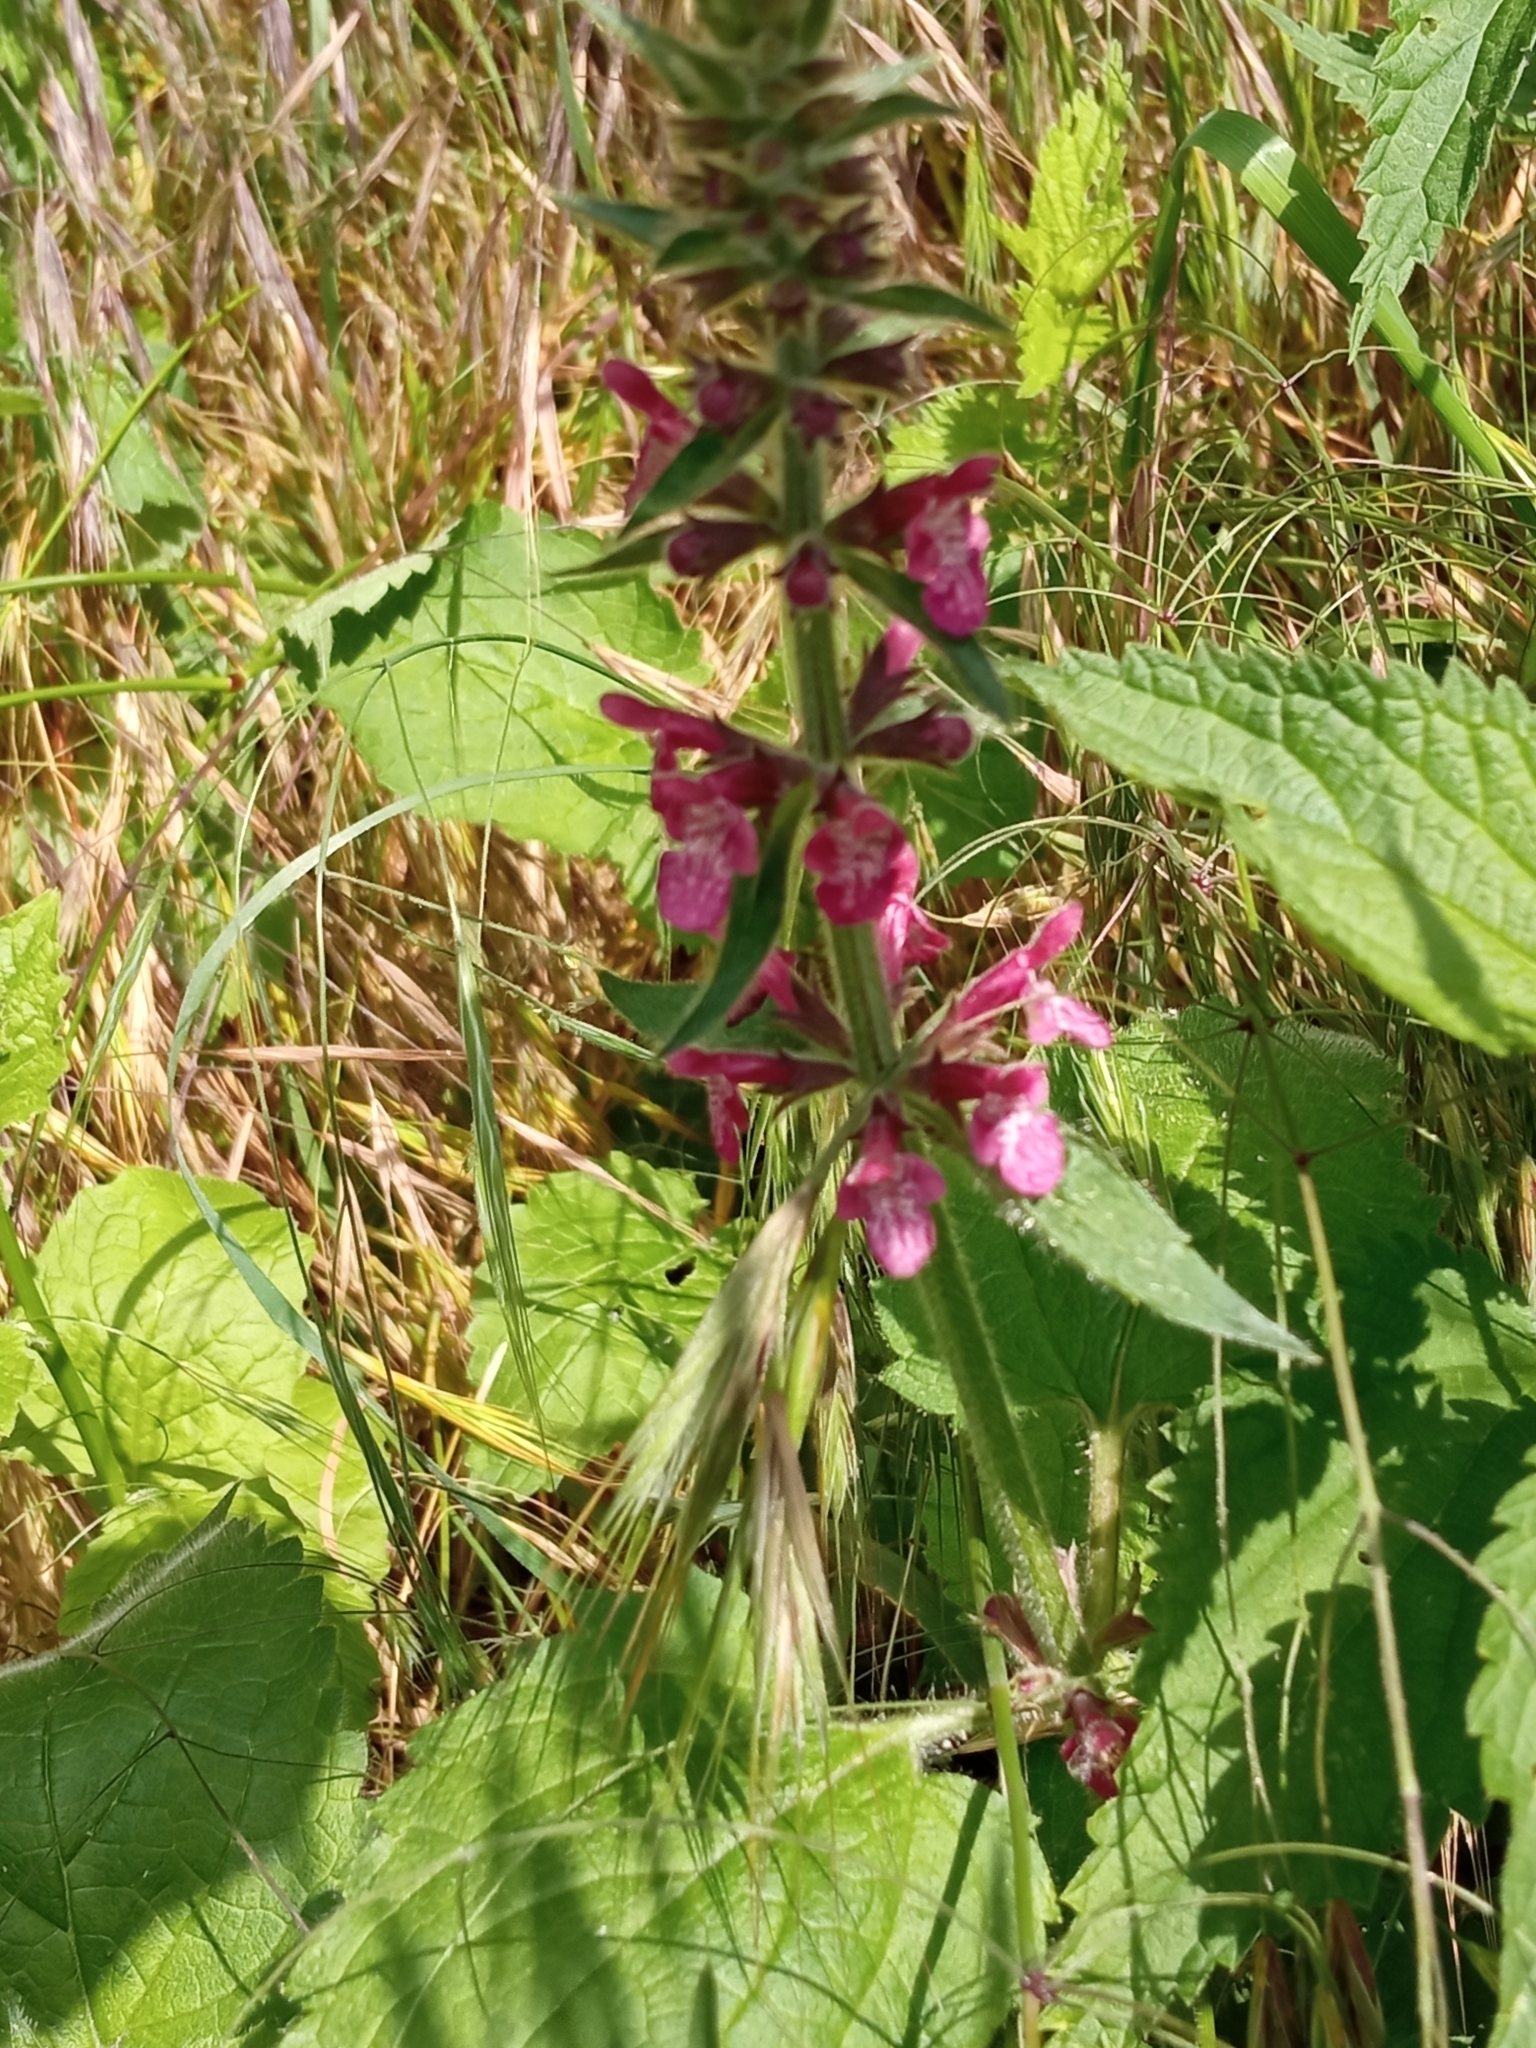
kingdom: Plantae
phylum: Tracheophyta
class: Magnoliopsida
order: Lamiales
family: Lamiaceae
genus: Stachys
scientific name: Stachys sylvatica
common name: Hedge woundwort
